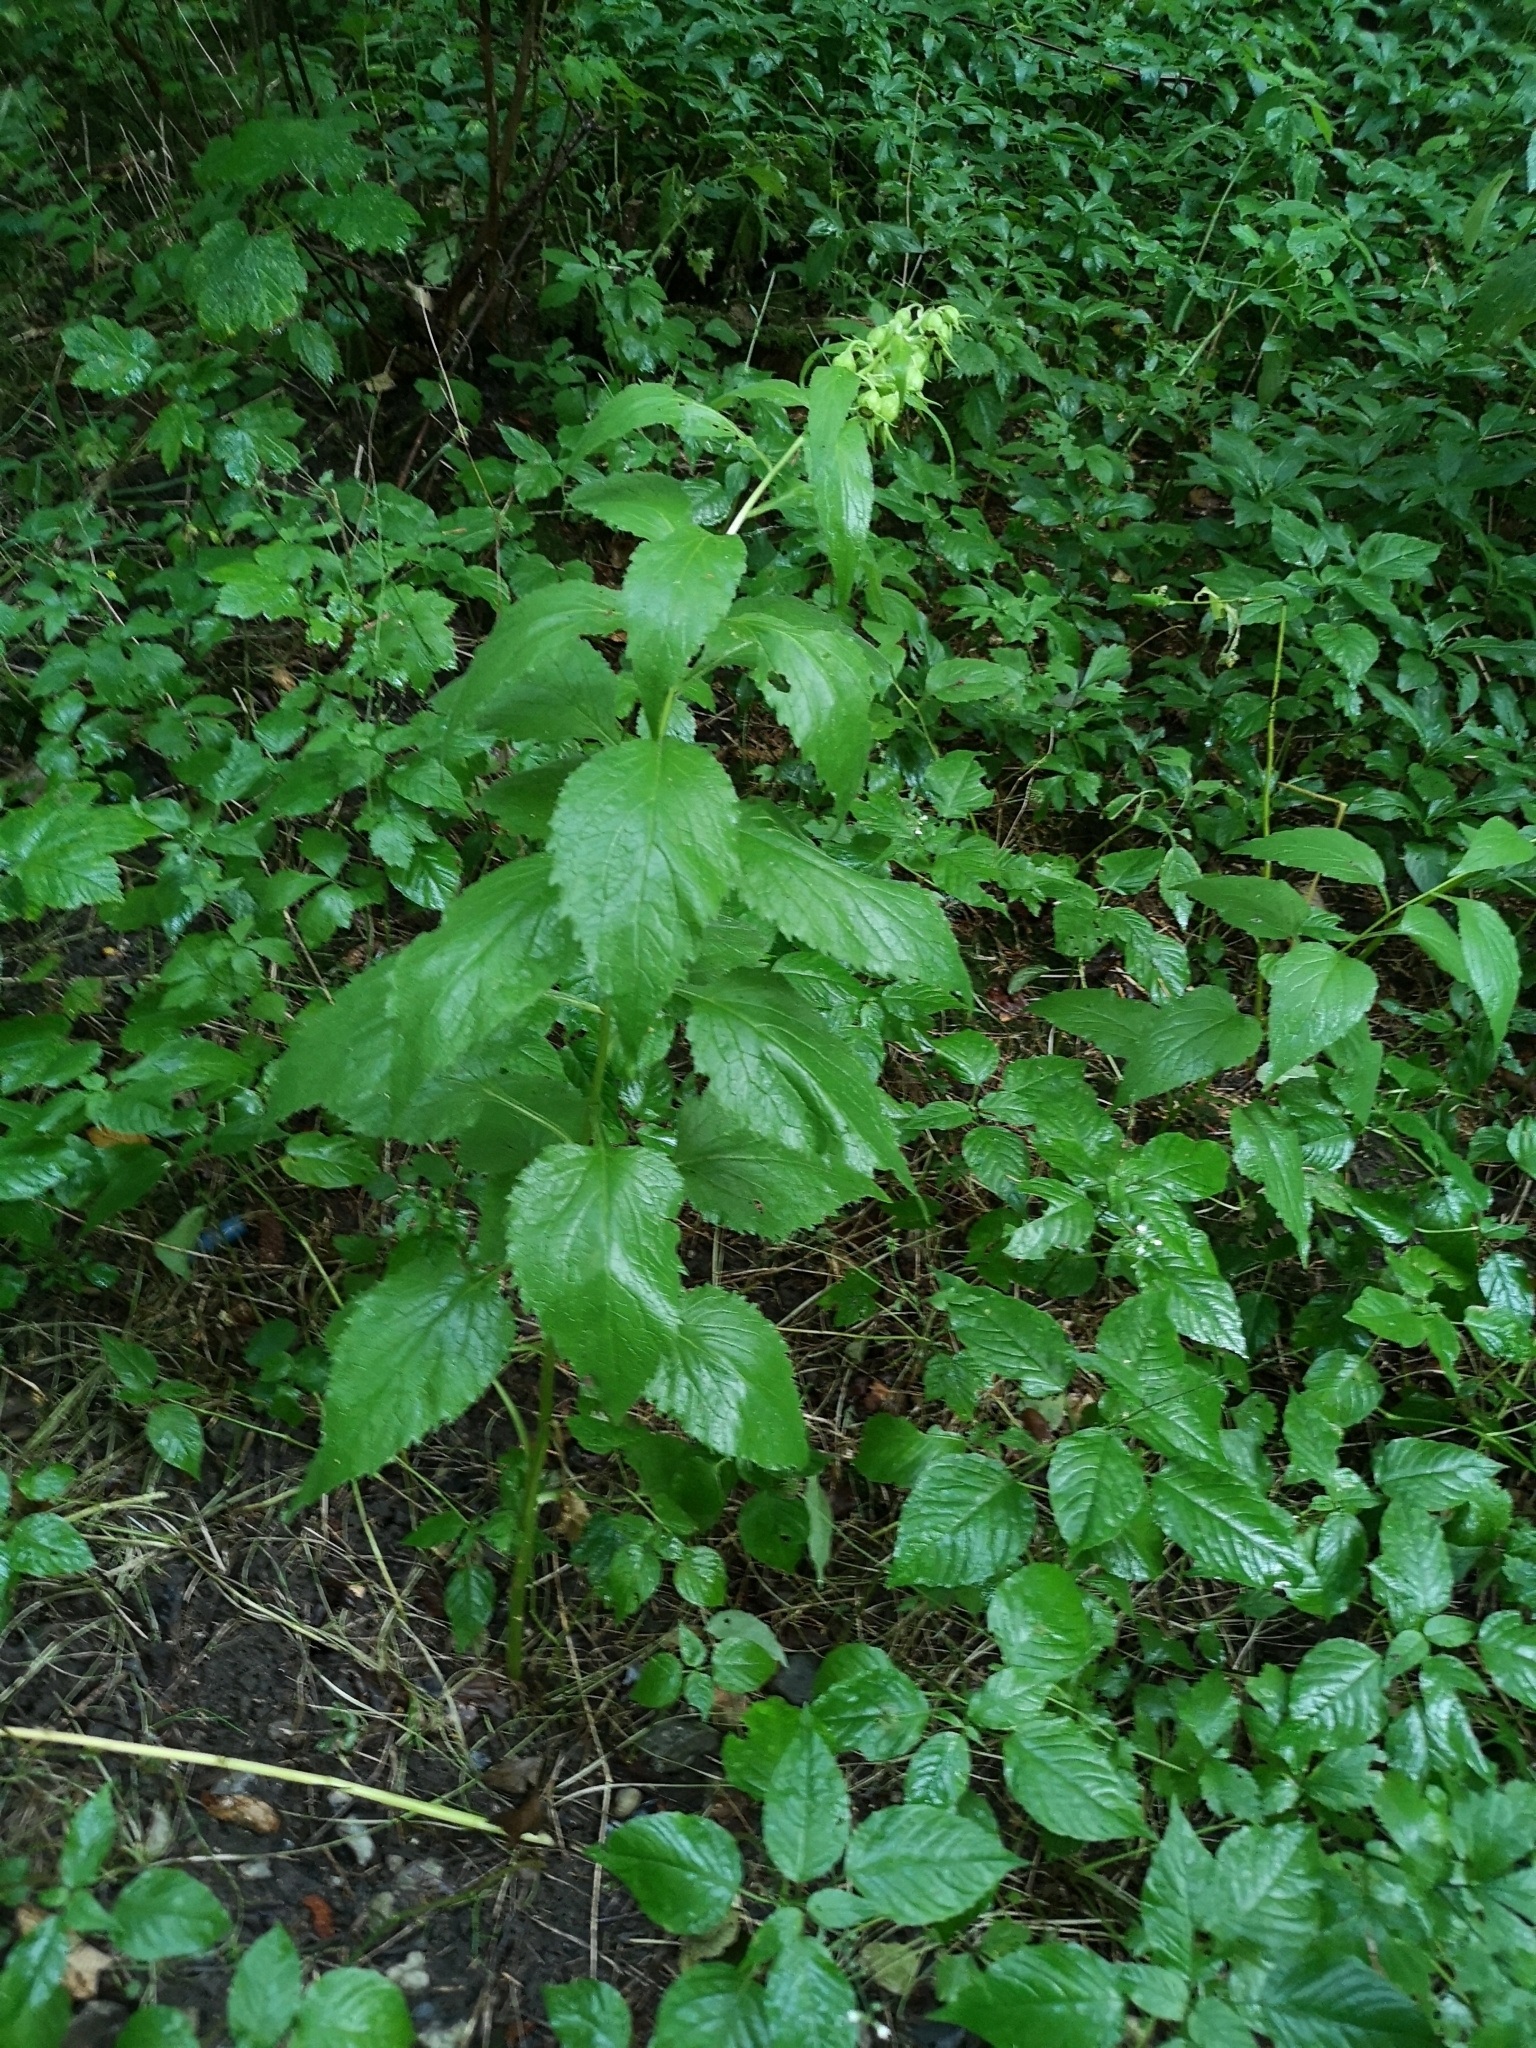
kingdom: Plantae
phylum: Tracheophyta
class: Magnoliopsida
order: Asterales
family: Campanulaceae
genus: Campanula
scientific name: Campanula latifolia
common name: Giant bellflower
